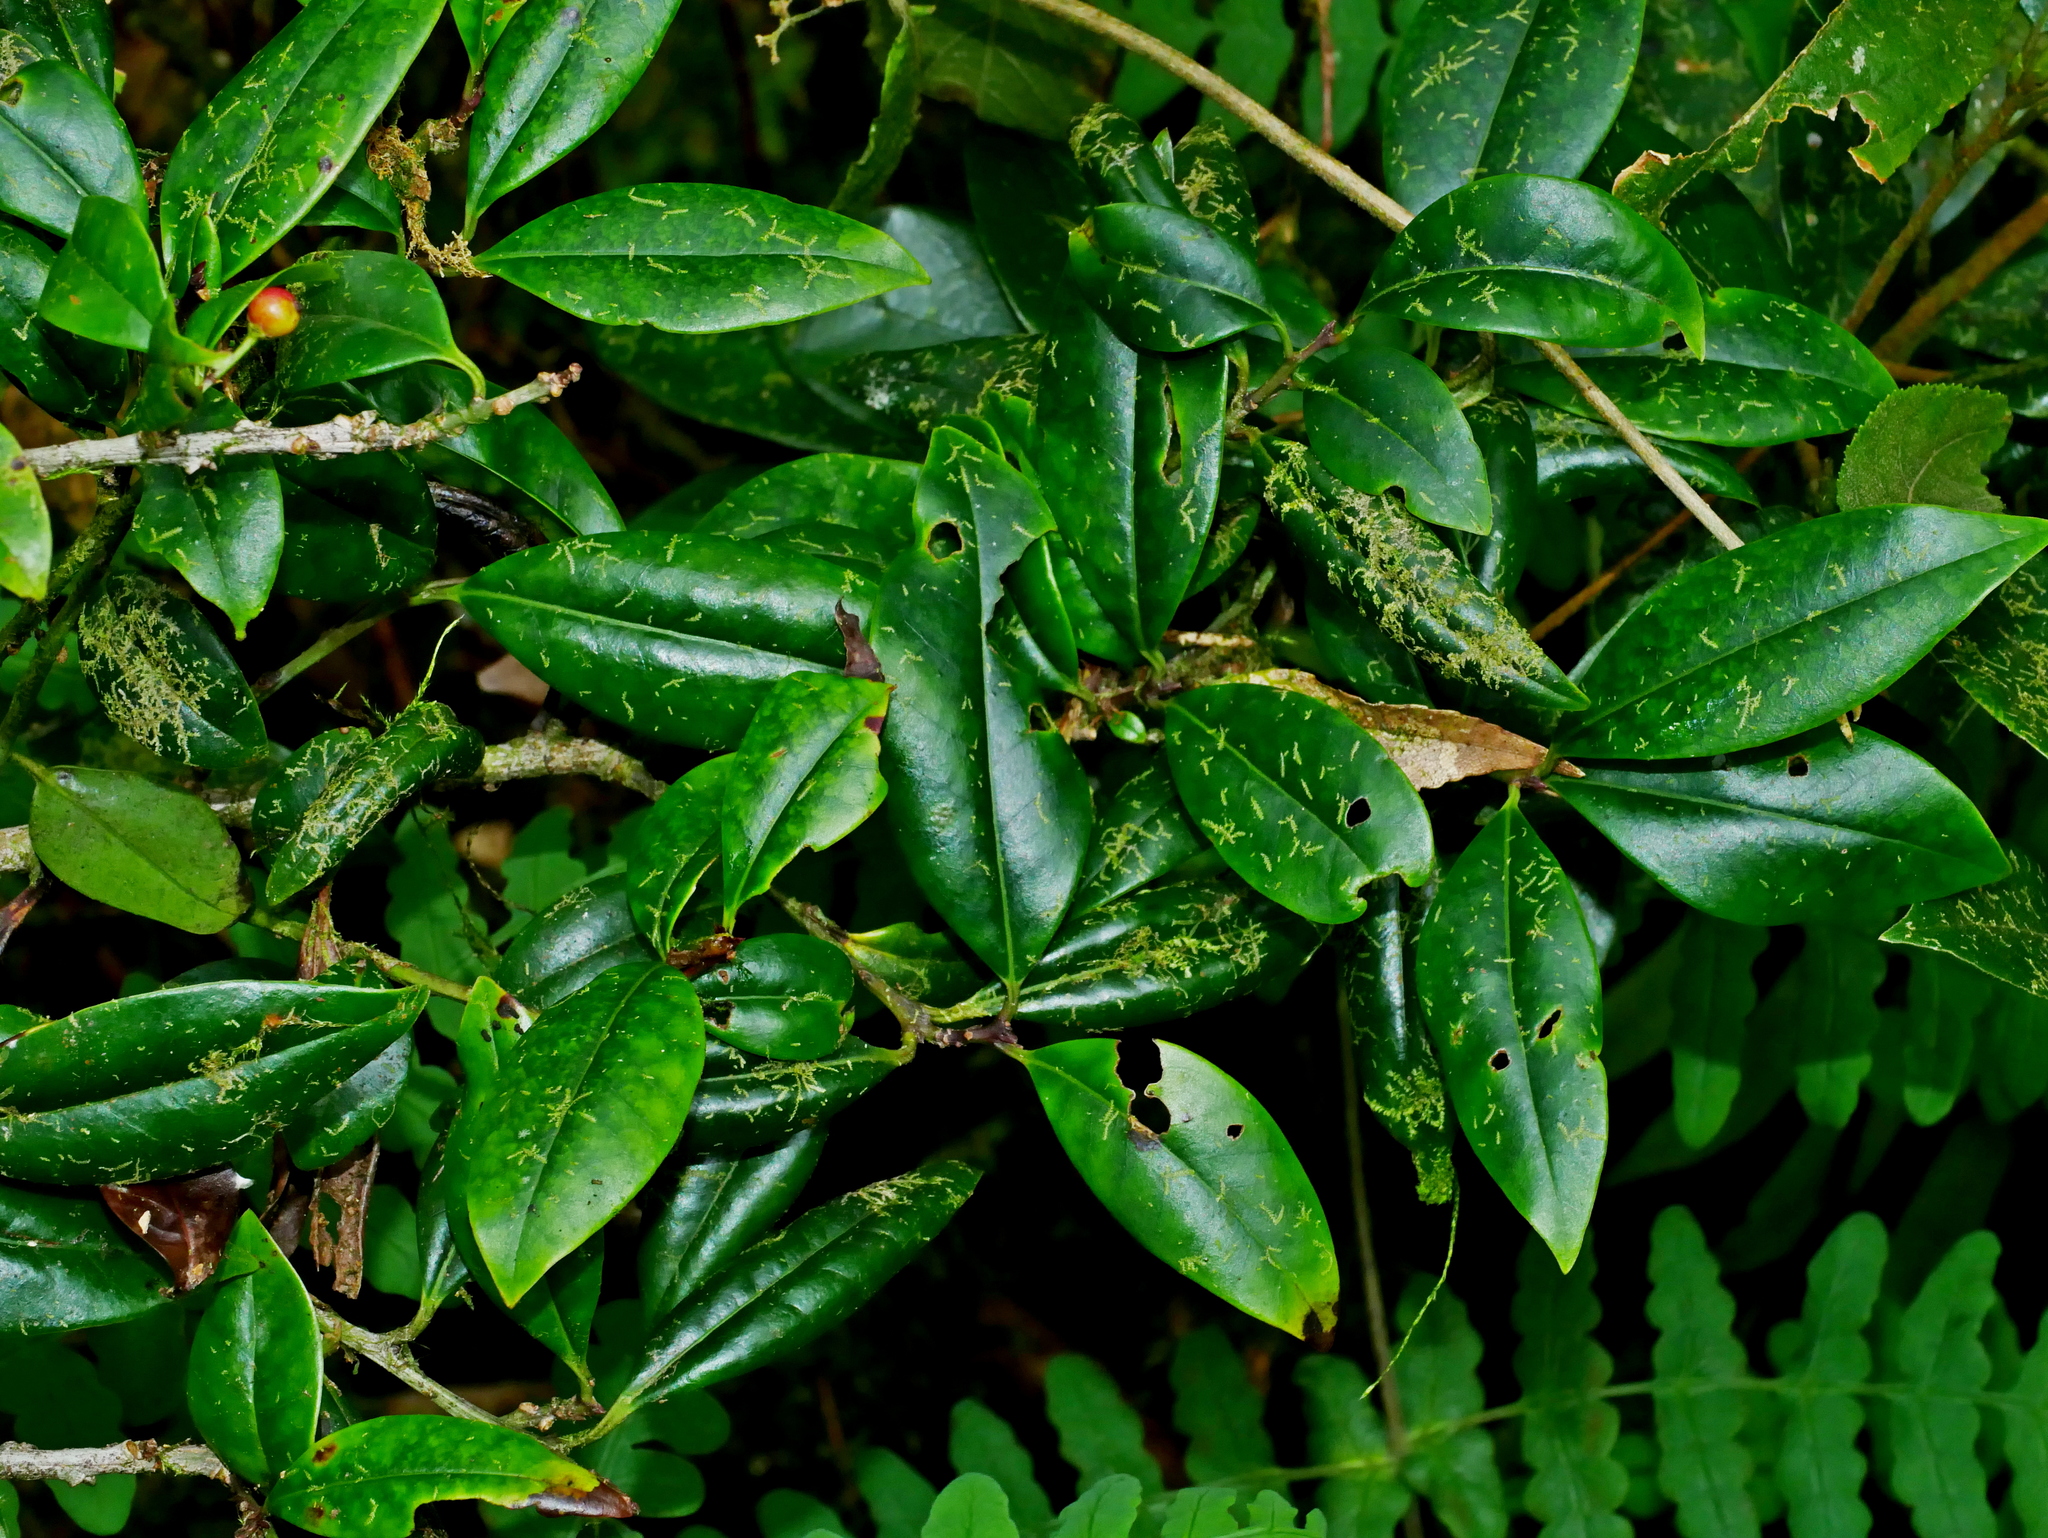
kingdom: Plantae
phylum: Tracheophyta
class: Magnoliopsida
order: Aquifoliales
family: Aquifoliaceae
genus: Ilex
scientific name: Ilex lonicerifolia
